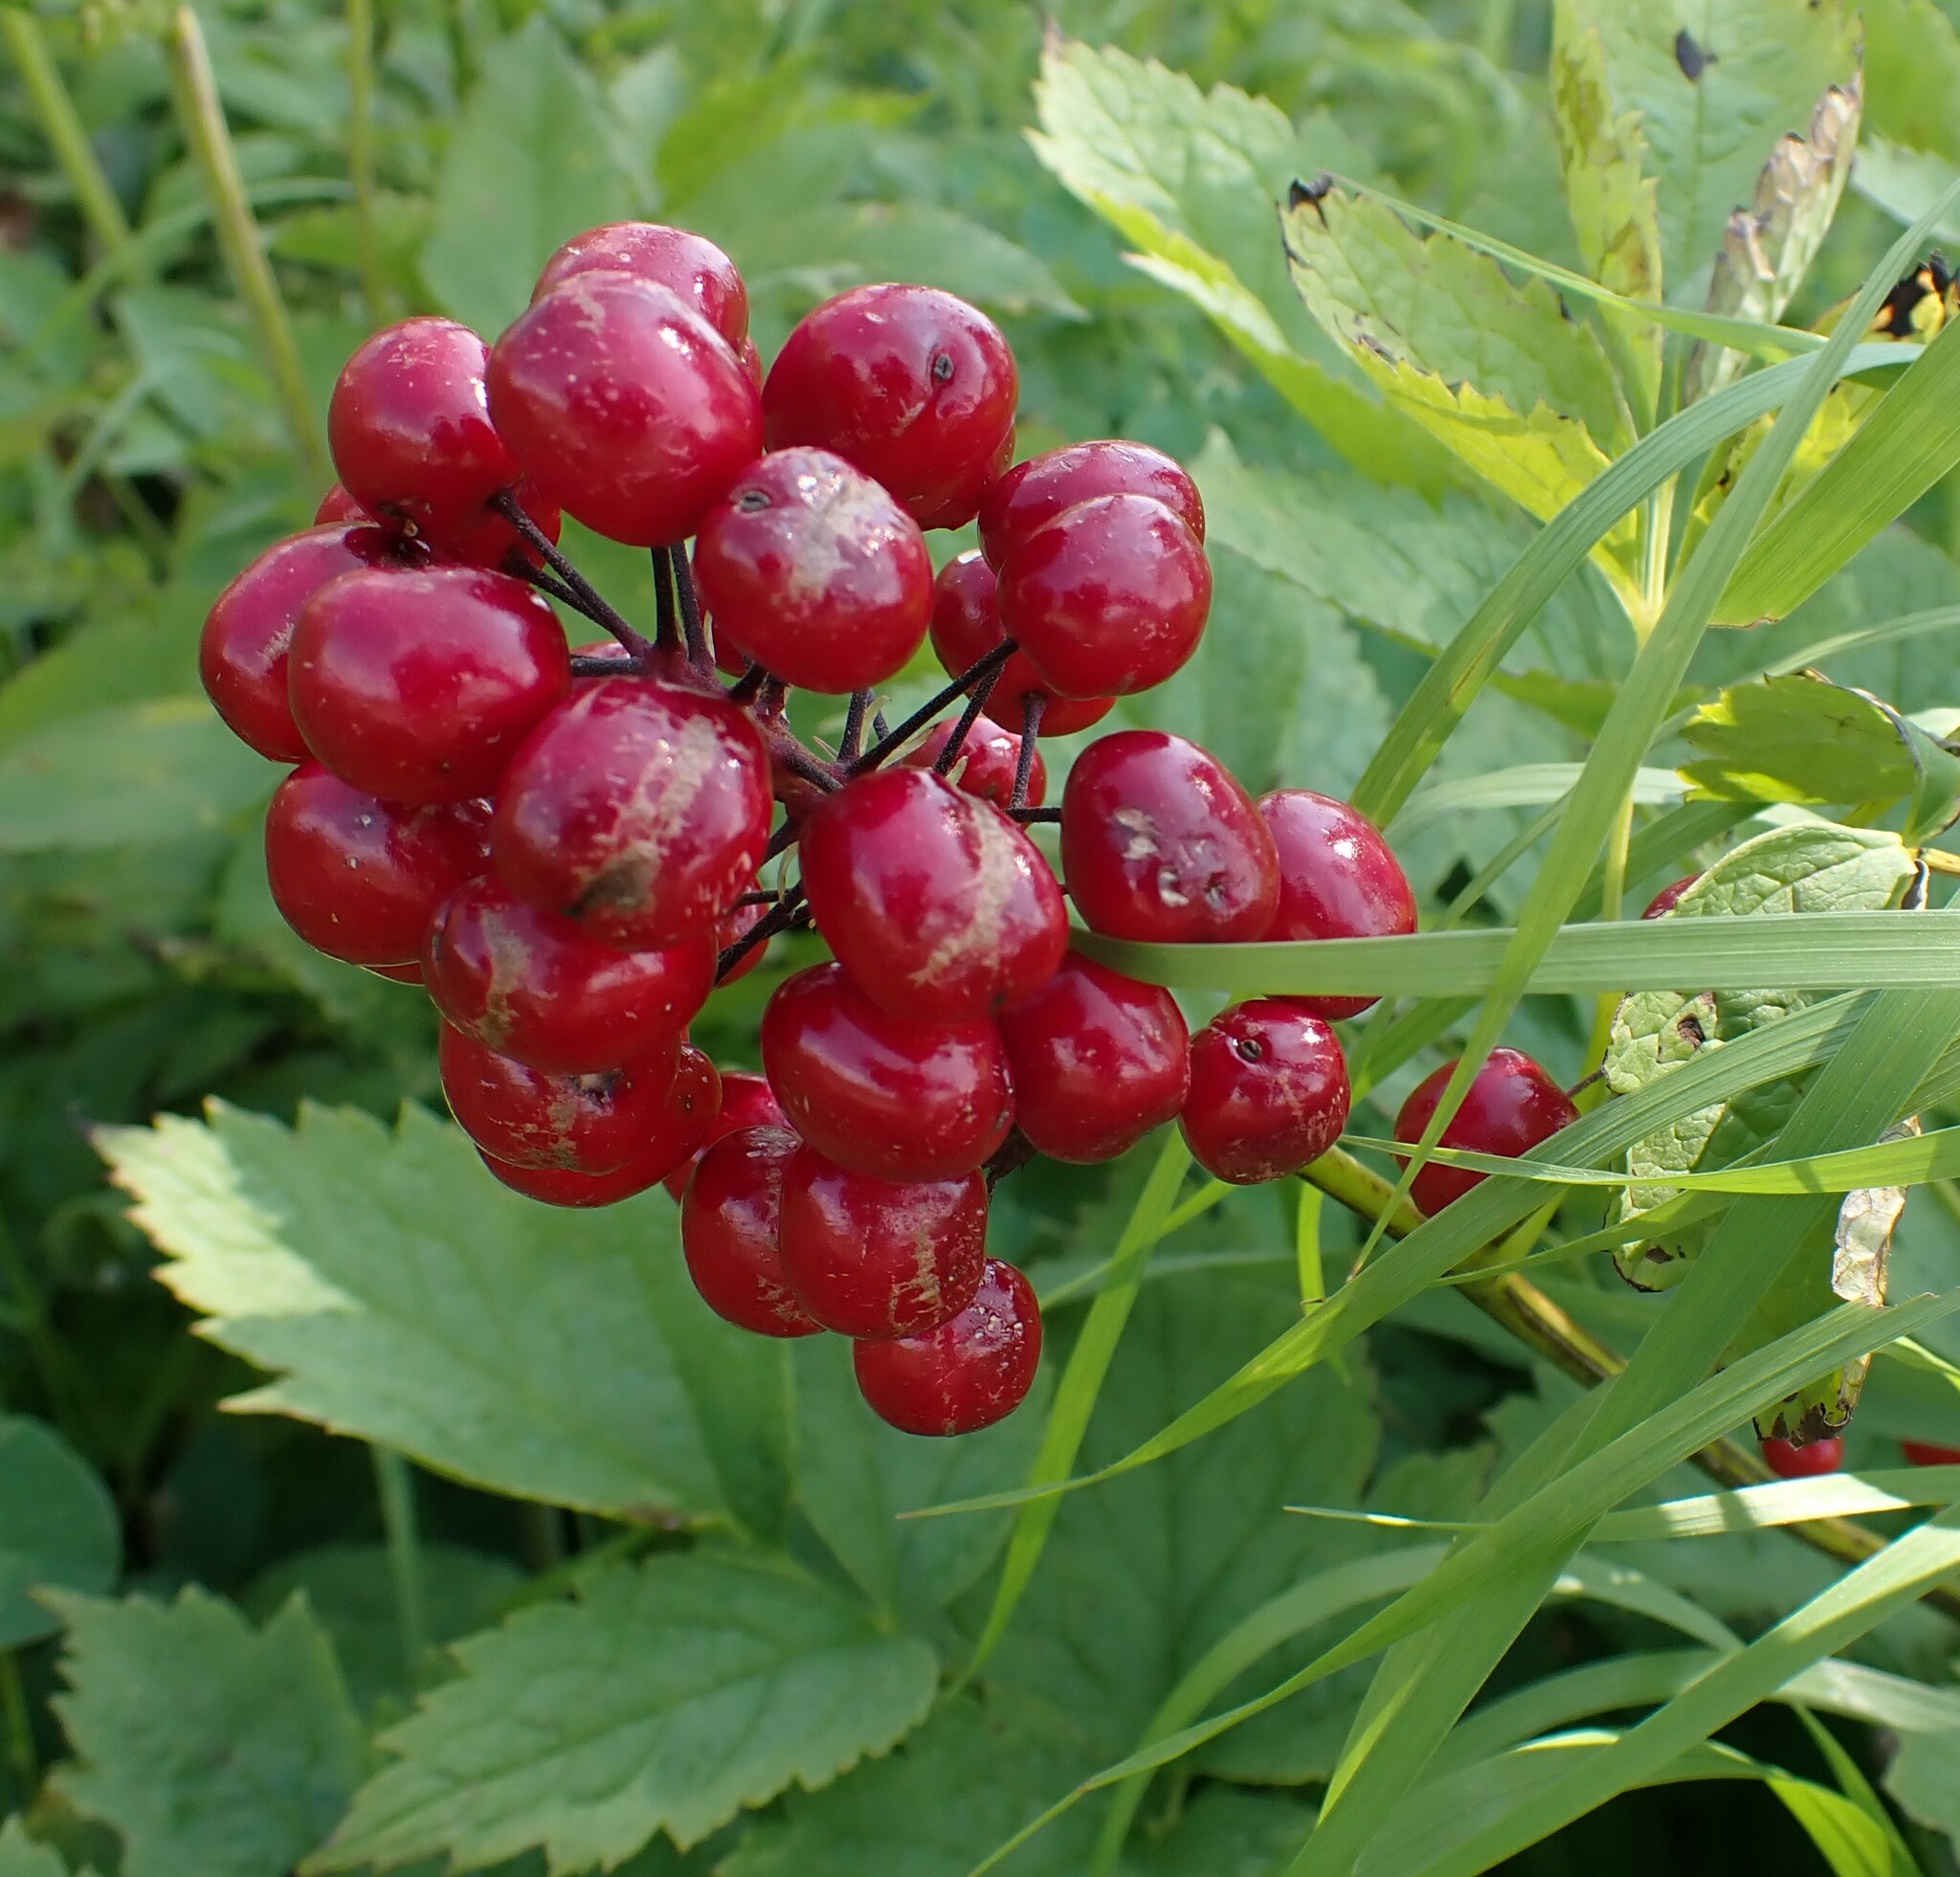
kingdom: Plantae
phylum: Tracheophyta
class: Magnoliopsida
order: Ranunculales
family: Ranunculaceae
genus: Actaea
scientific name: Actaea rubra
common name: Red baneberry
